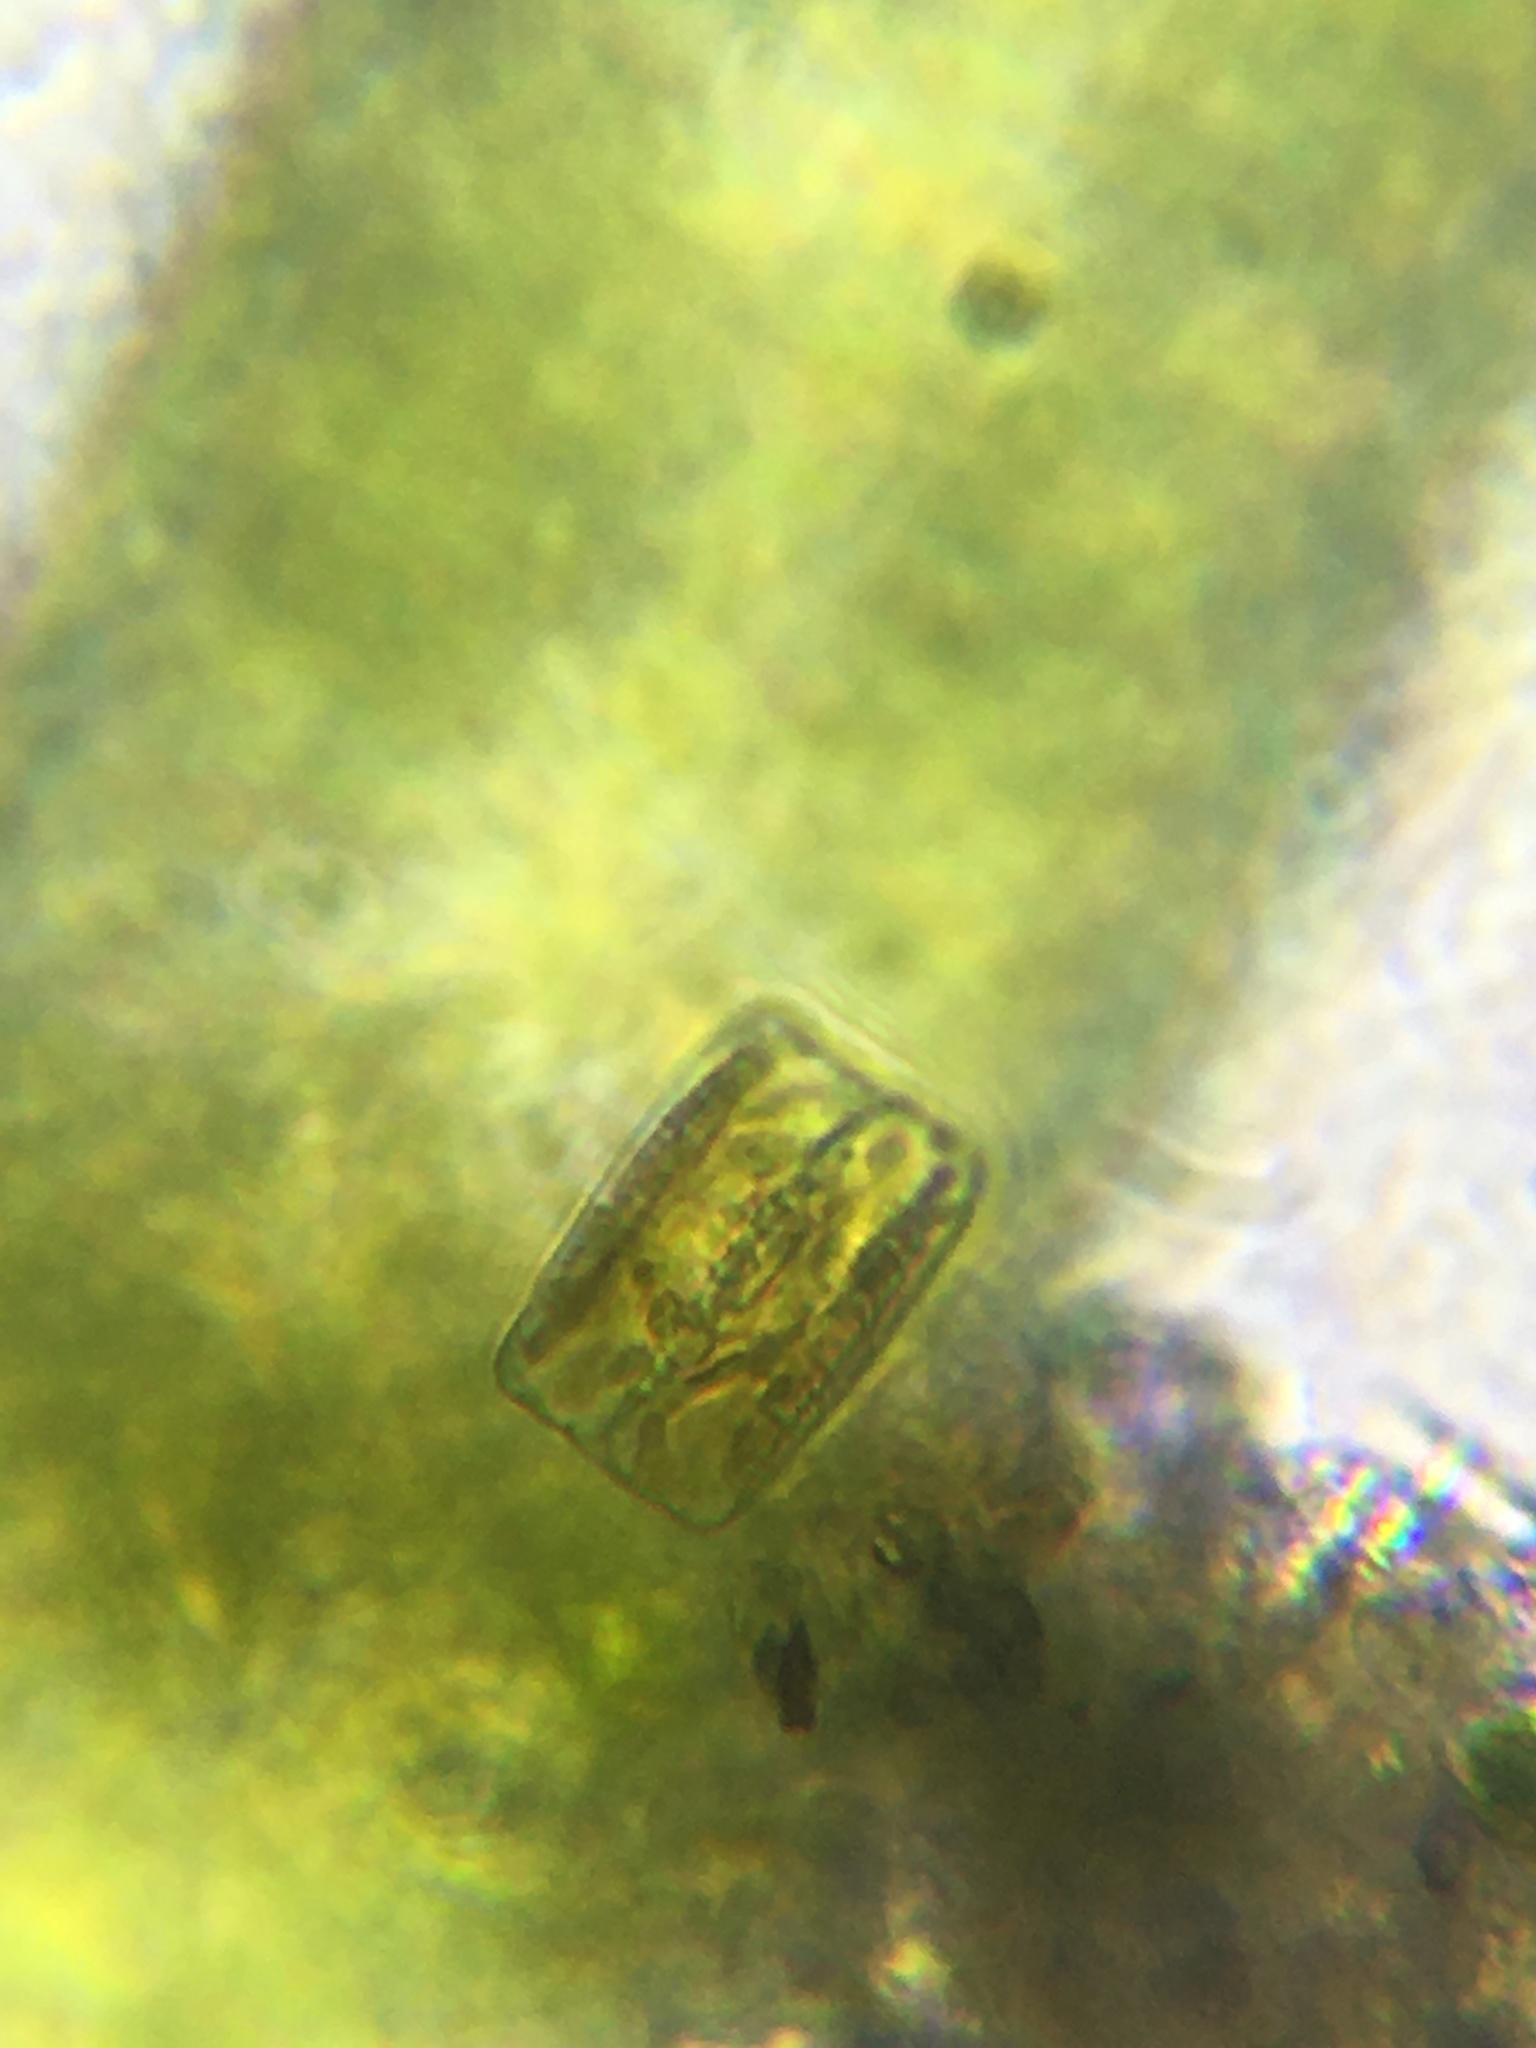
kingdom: Chromista
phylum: Ochrophyta
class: Bacillariophyceae
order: Tabellariales
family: Tabellariaceae
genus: Diatoma
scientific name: Diatoma
